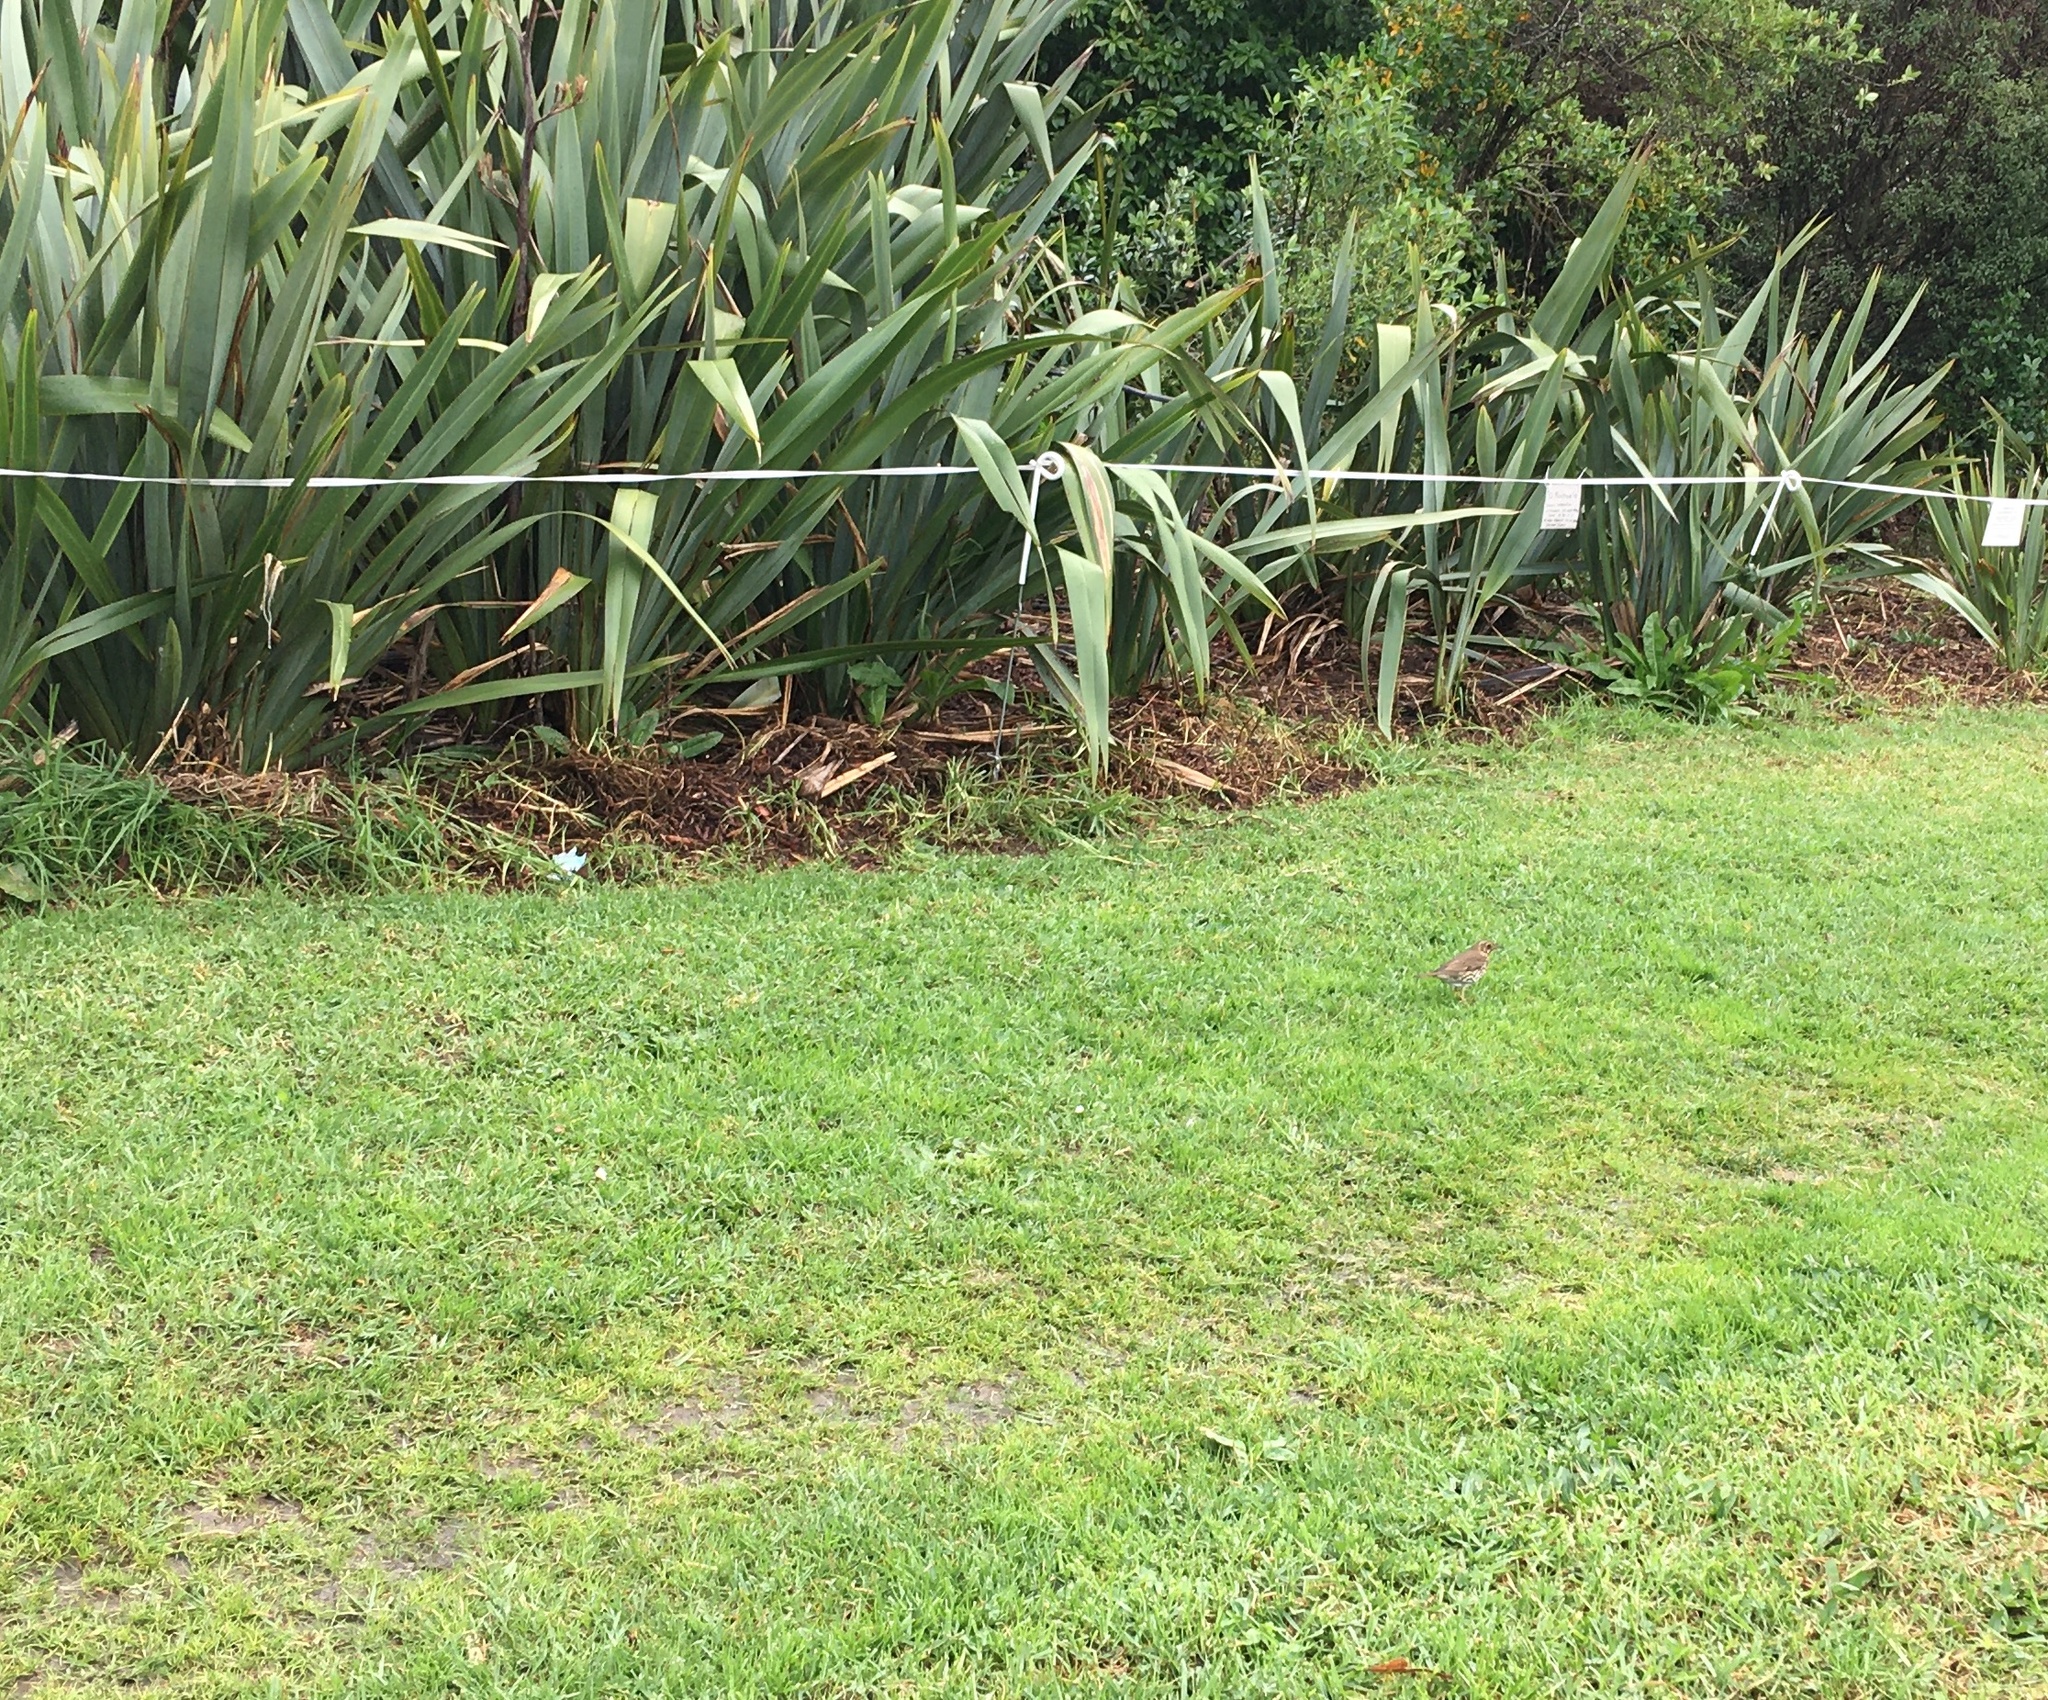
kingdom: Animalia
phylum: Chordata
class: Aves
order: Passeriformes
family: Turdidae
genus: Turdus
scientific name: Turdus philomelos
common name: Song thrush
